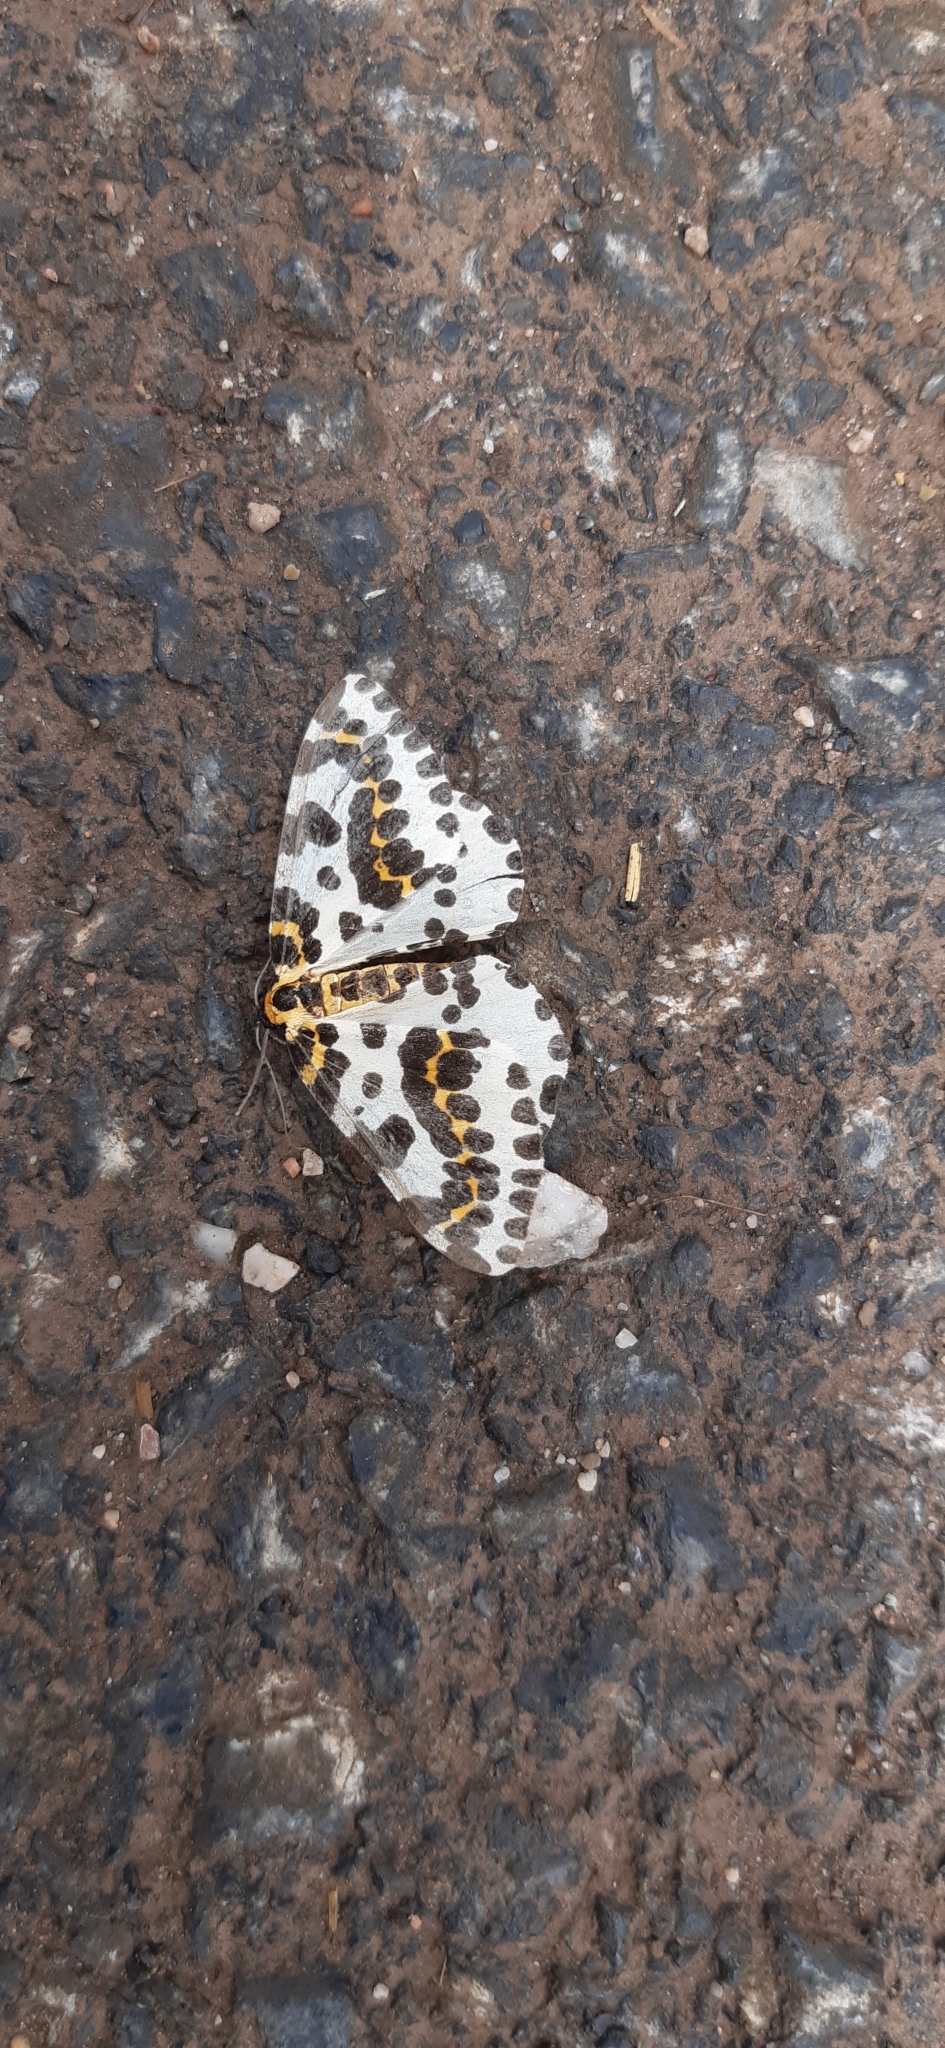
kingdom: Animalia
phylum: Arthropoda
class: Insecta
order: Lepidoptera
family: Geometridae
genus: Abraxas
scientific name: Abraxas grossulariata
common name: Magpie
